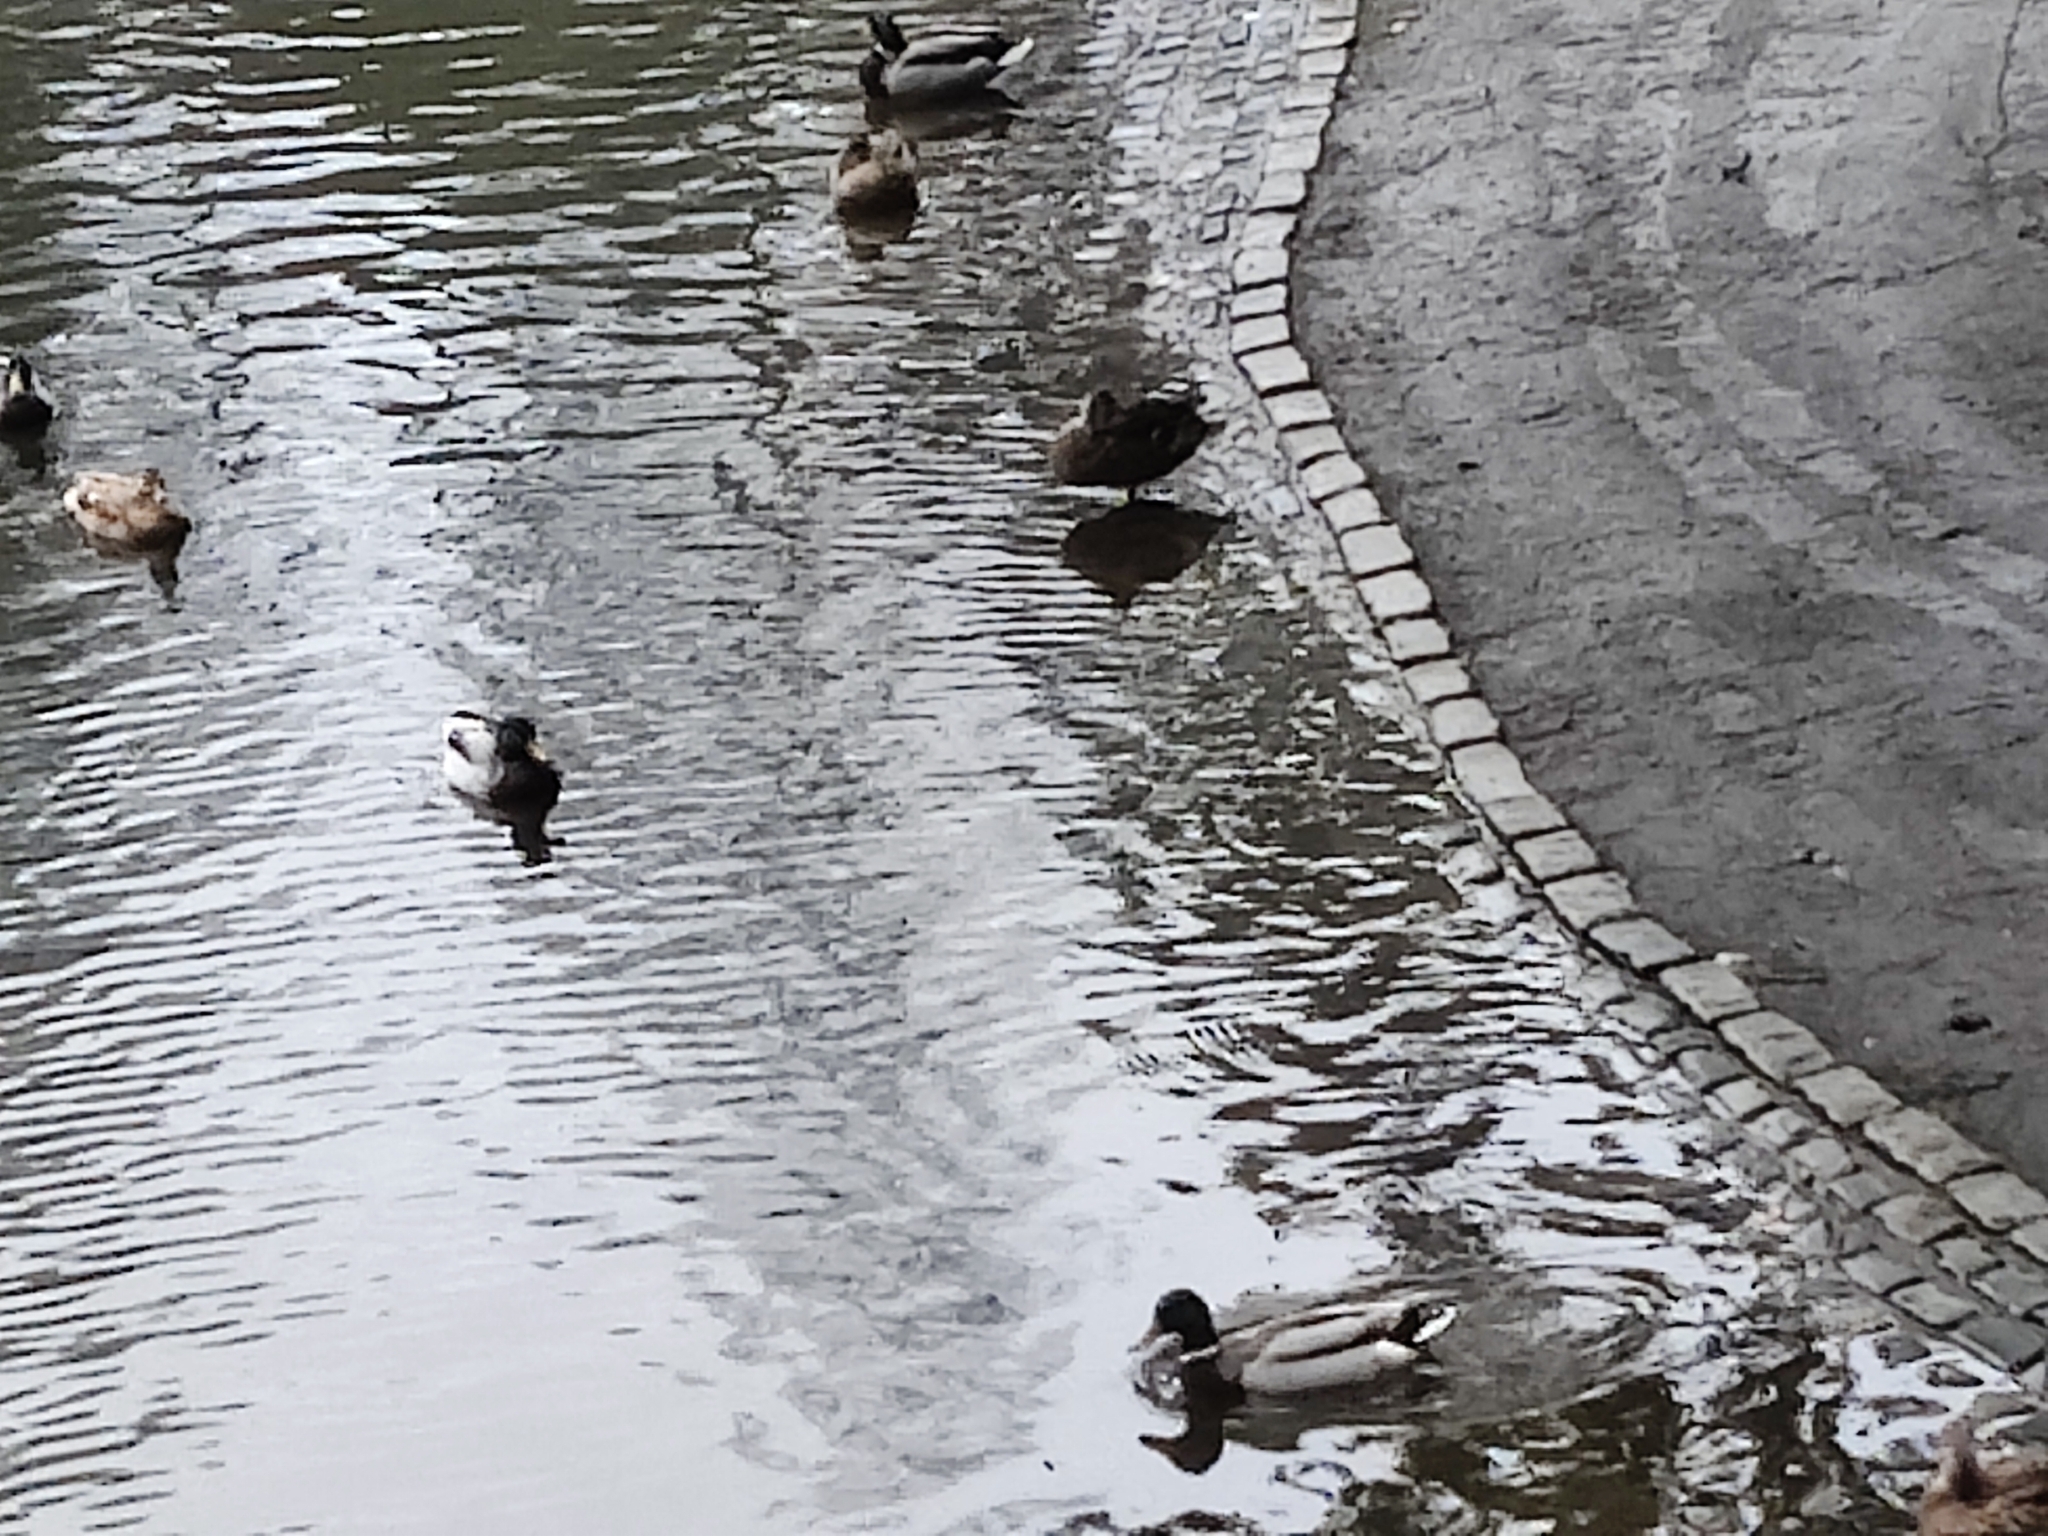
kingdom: Animalia
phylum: Chordata
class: Aves
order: Anseriformes
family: Anatidae
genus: Anas
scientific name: Anas platyrhynchos
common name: Mallard
